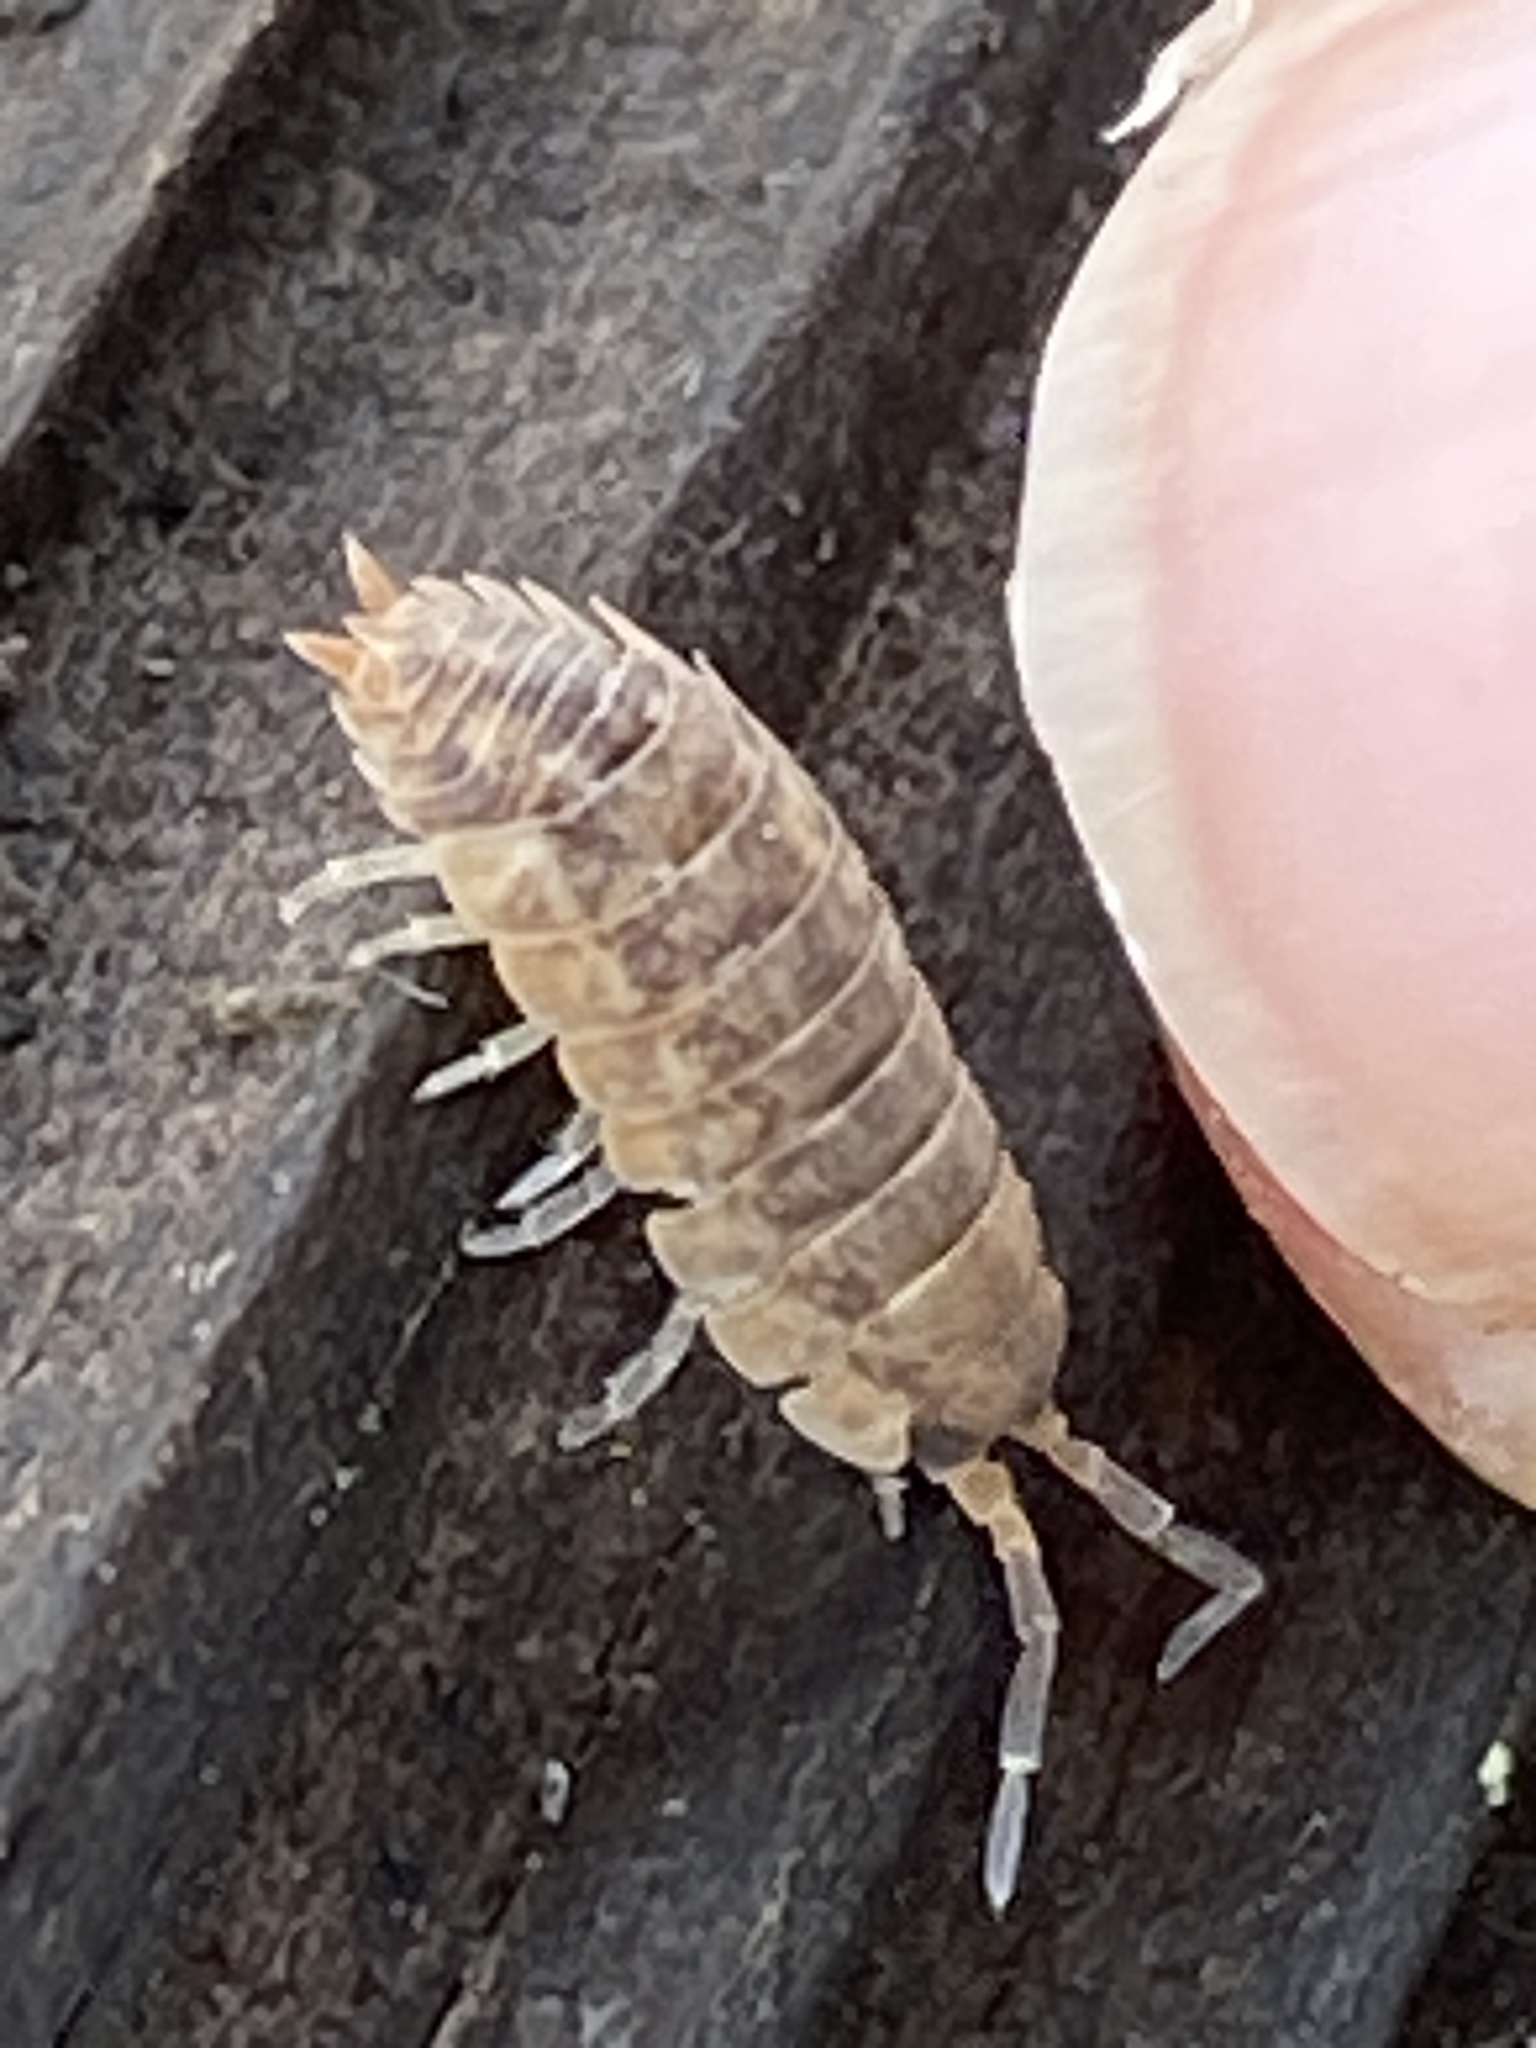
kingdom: Animalia
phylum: Arthropoda
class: Malacostraca
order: Isopoda
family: Porcellionidae
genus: Porcellio
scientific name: Porcellio scaber
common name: Common rough woodlouse
